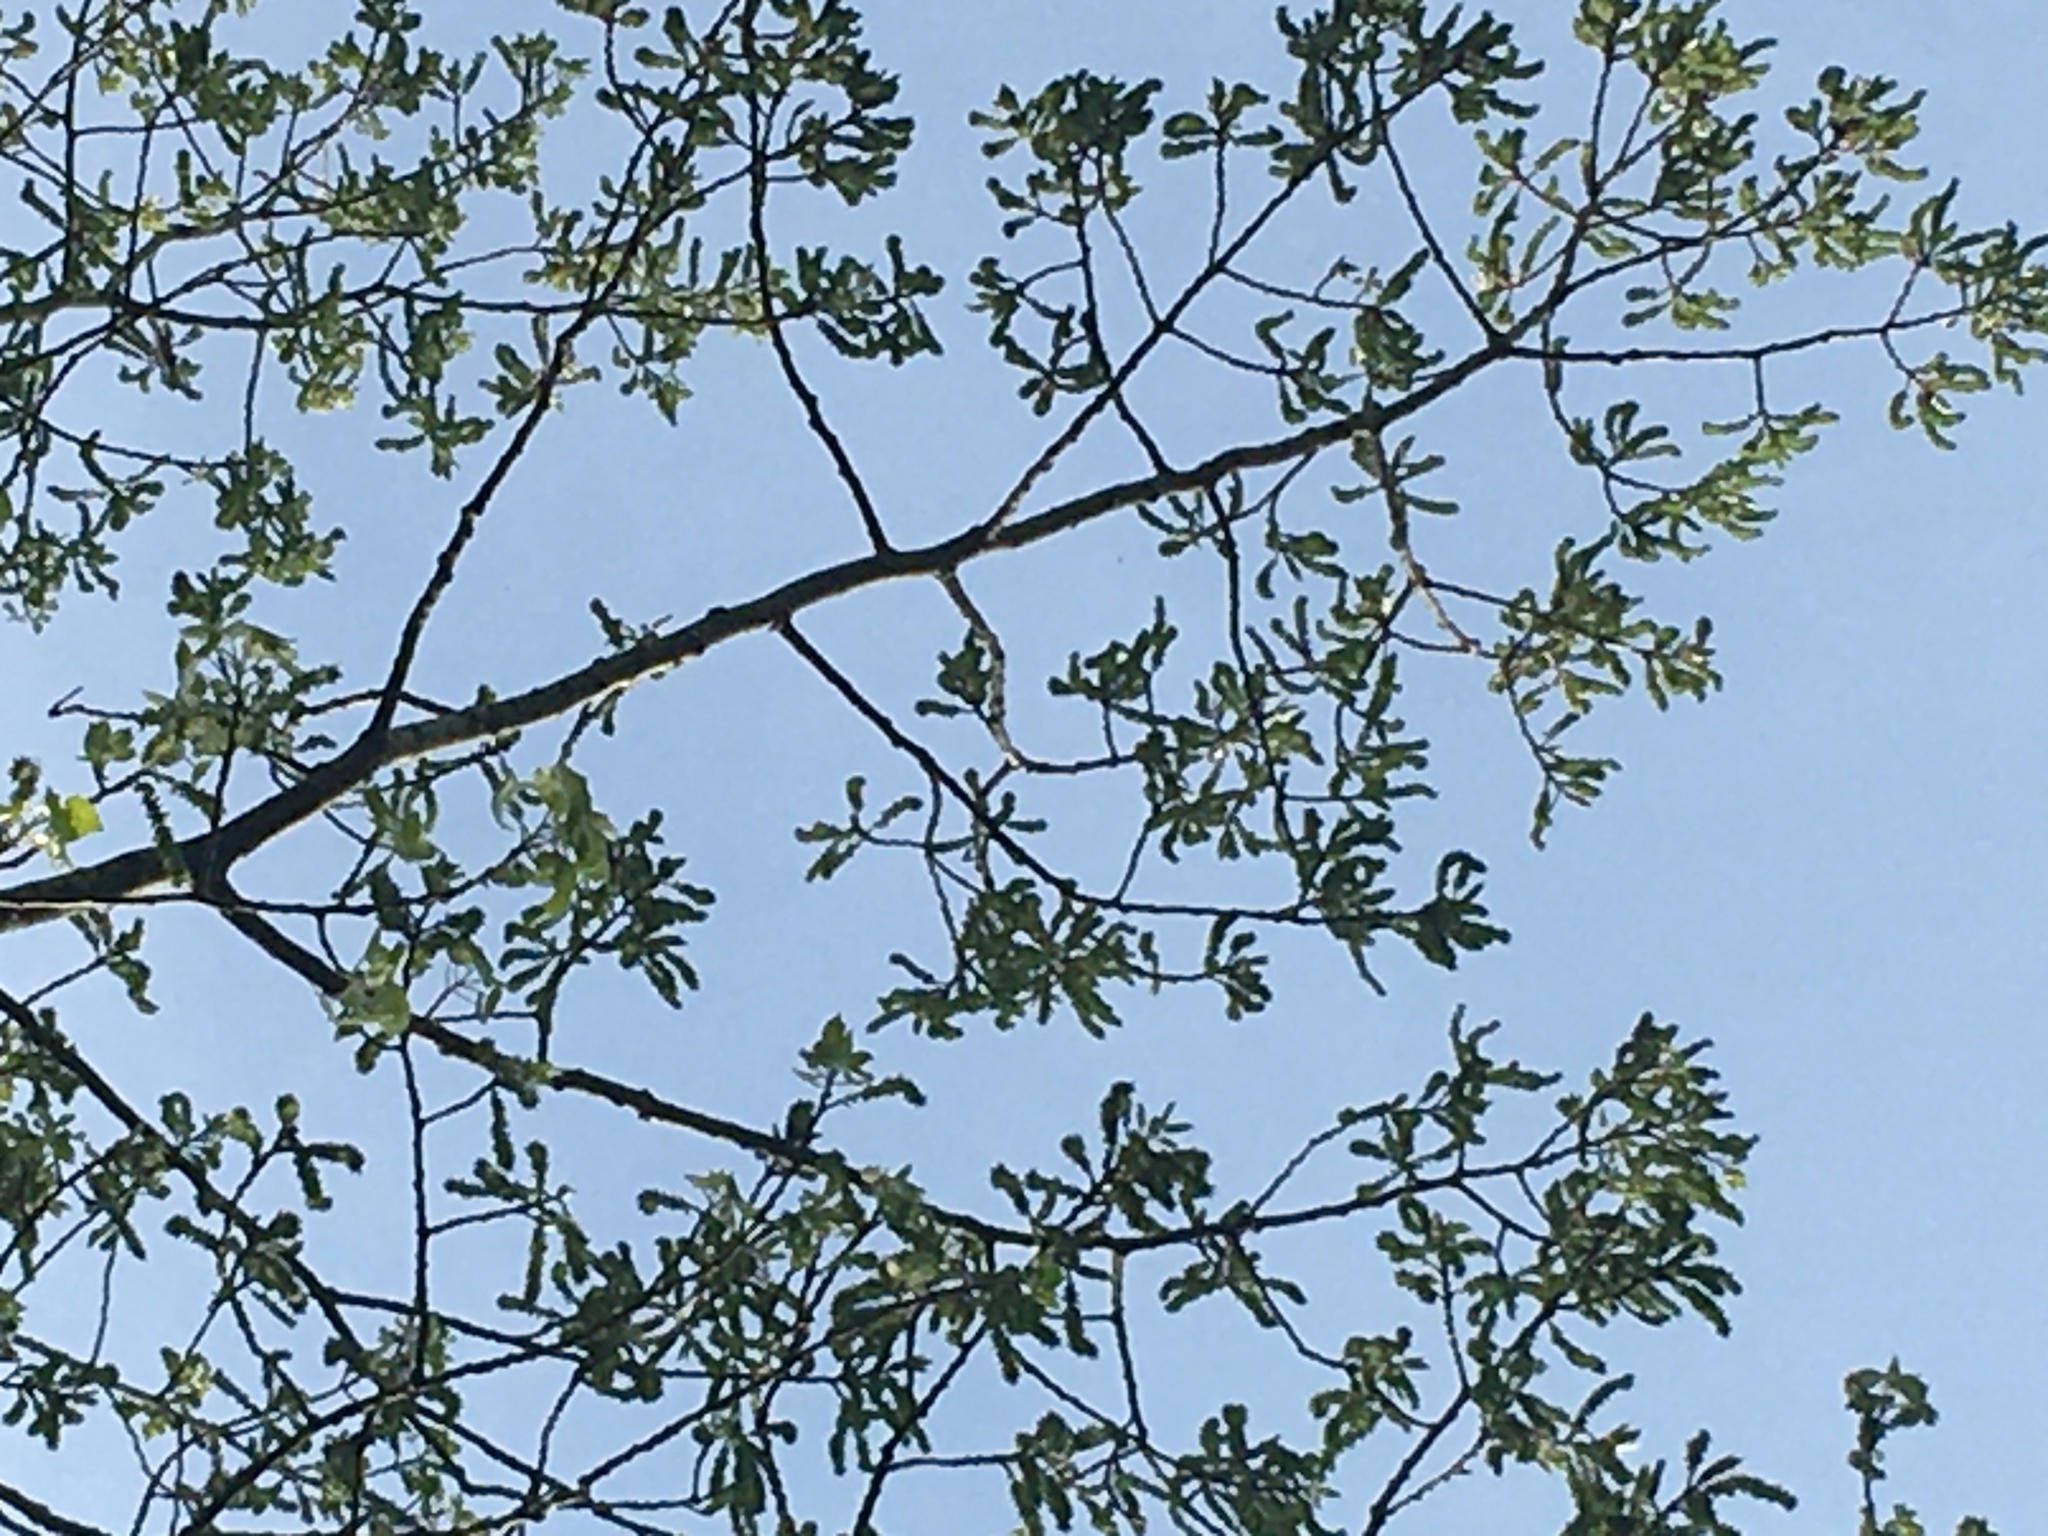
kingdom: Plantae
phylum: Tracheophyta
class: Magnoliopsida
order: Malpighiales
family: Salicaceae
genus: Populus
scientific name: Populus grandidentata
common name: Bigtooth aspen
